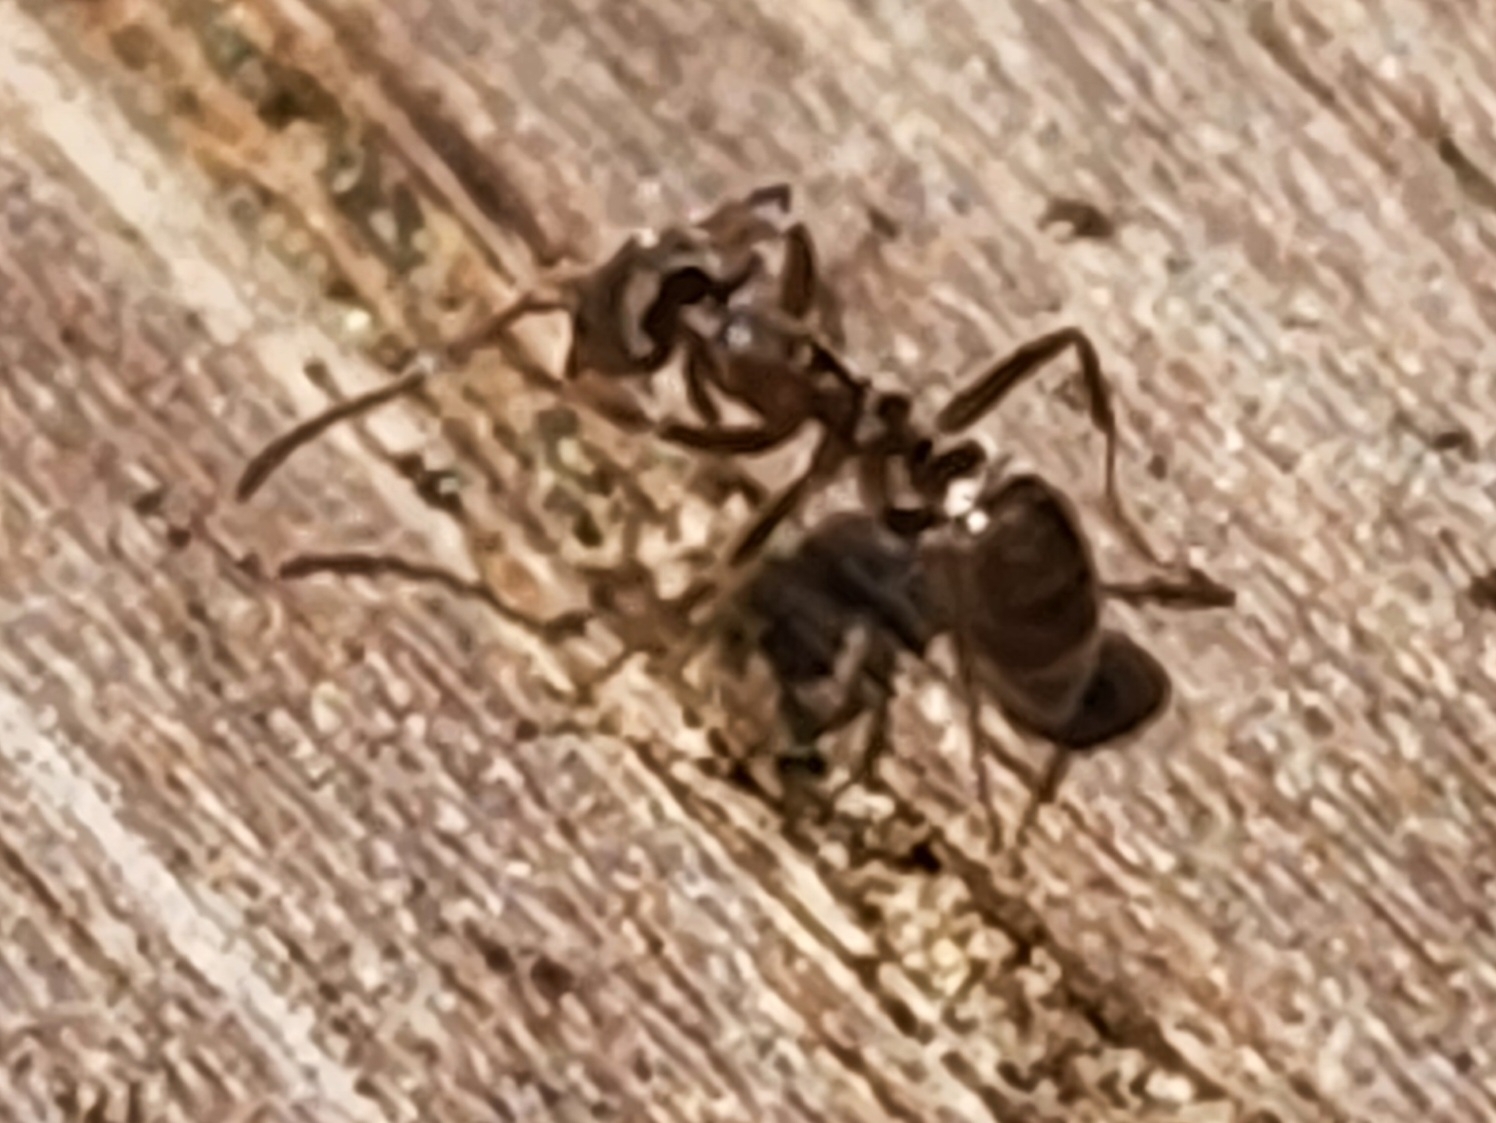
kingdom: Animalia
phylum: Arthropoda
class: Insecta
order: Hymenoptera
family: Formicidae
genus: Linepithema
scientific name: Linepithema humile
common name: Argentine ant
